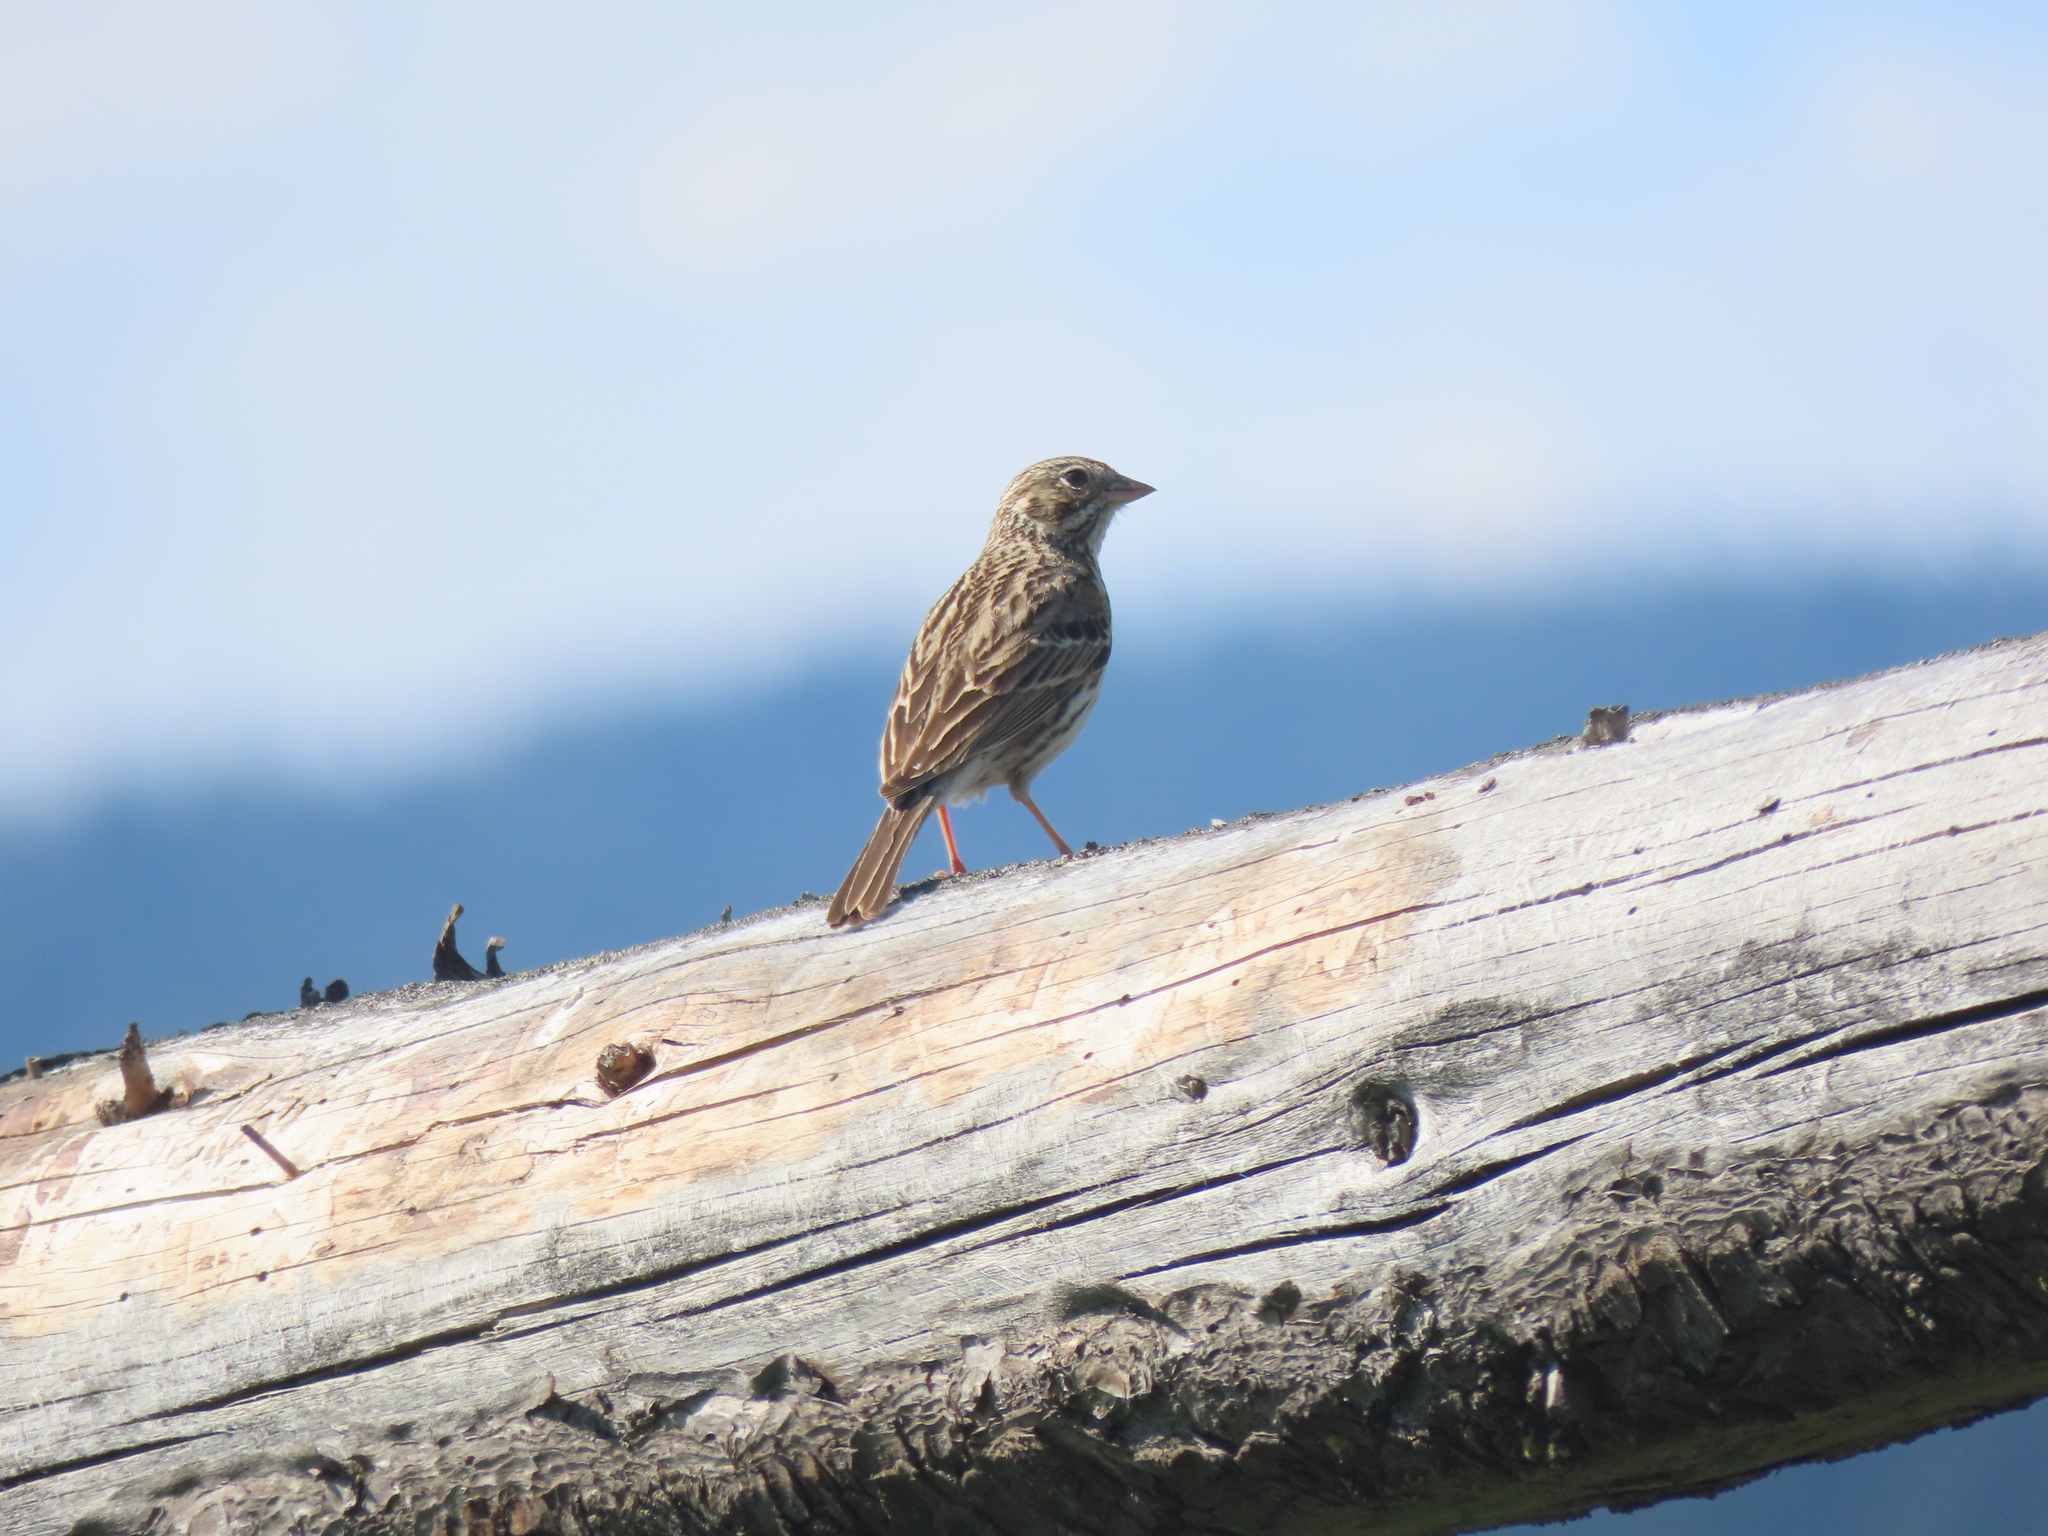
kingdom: Animalia
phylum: Chordata
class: Aves
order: Passeriformes
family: Passerellidae
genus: Pooecetes
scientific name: Pooecetes gramineus
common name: Vesper sparrow
